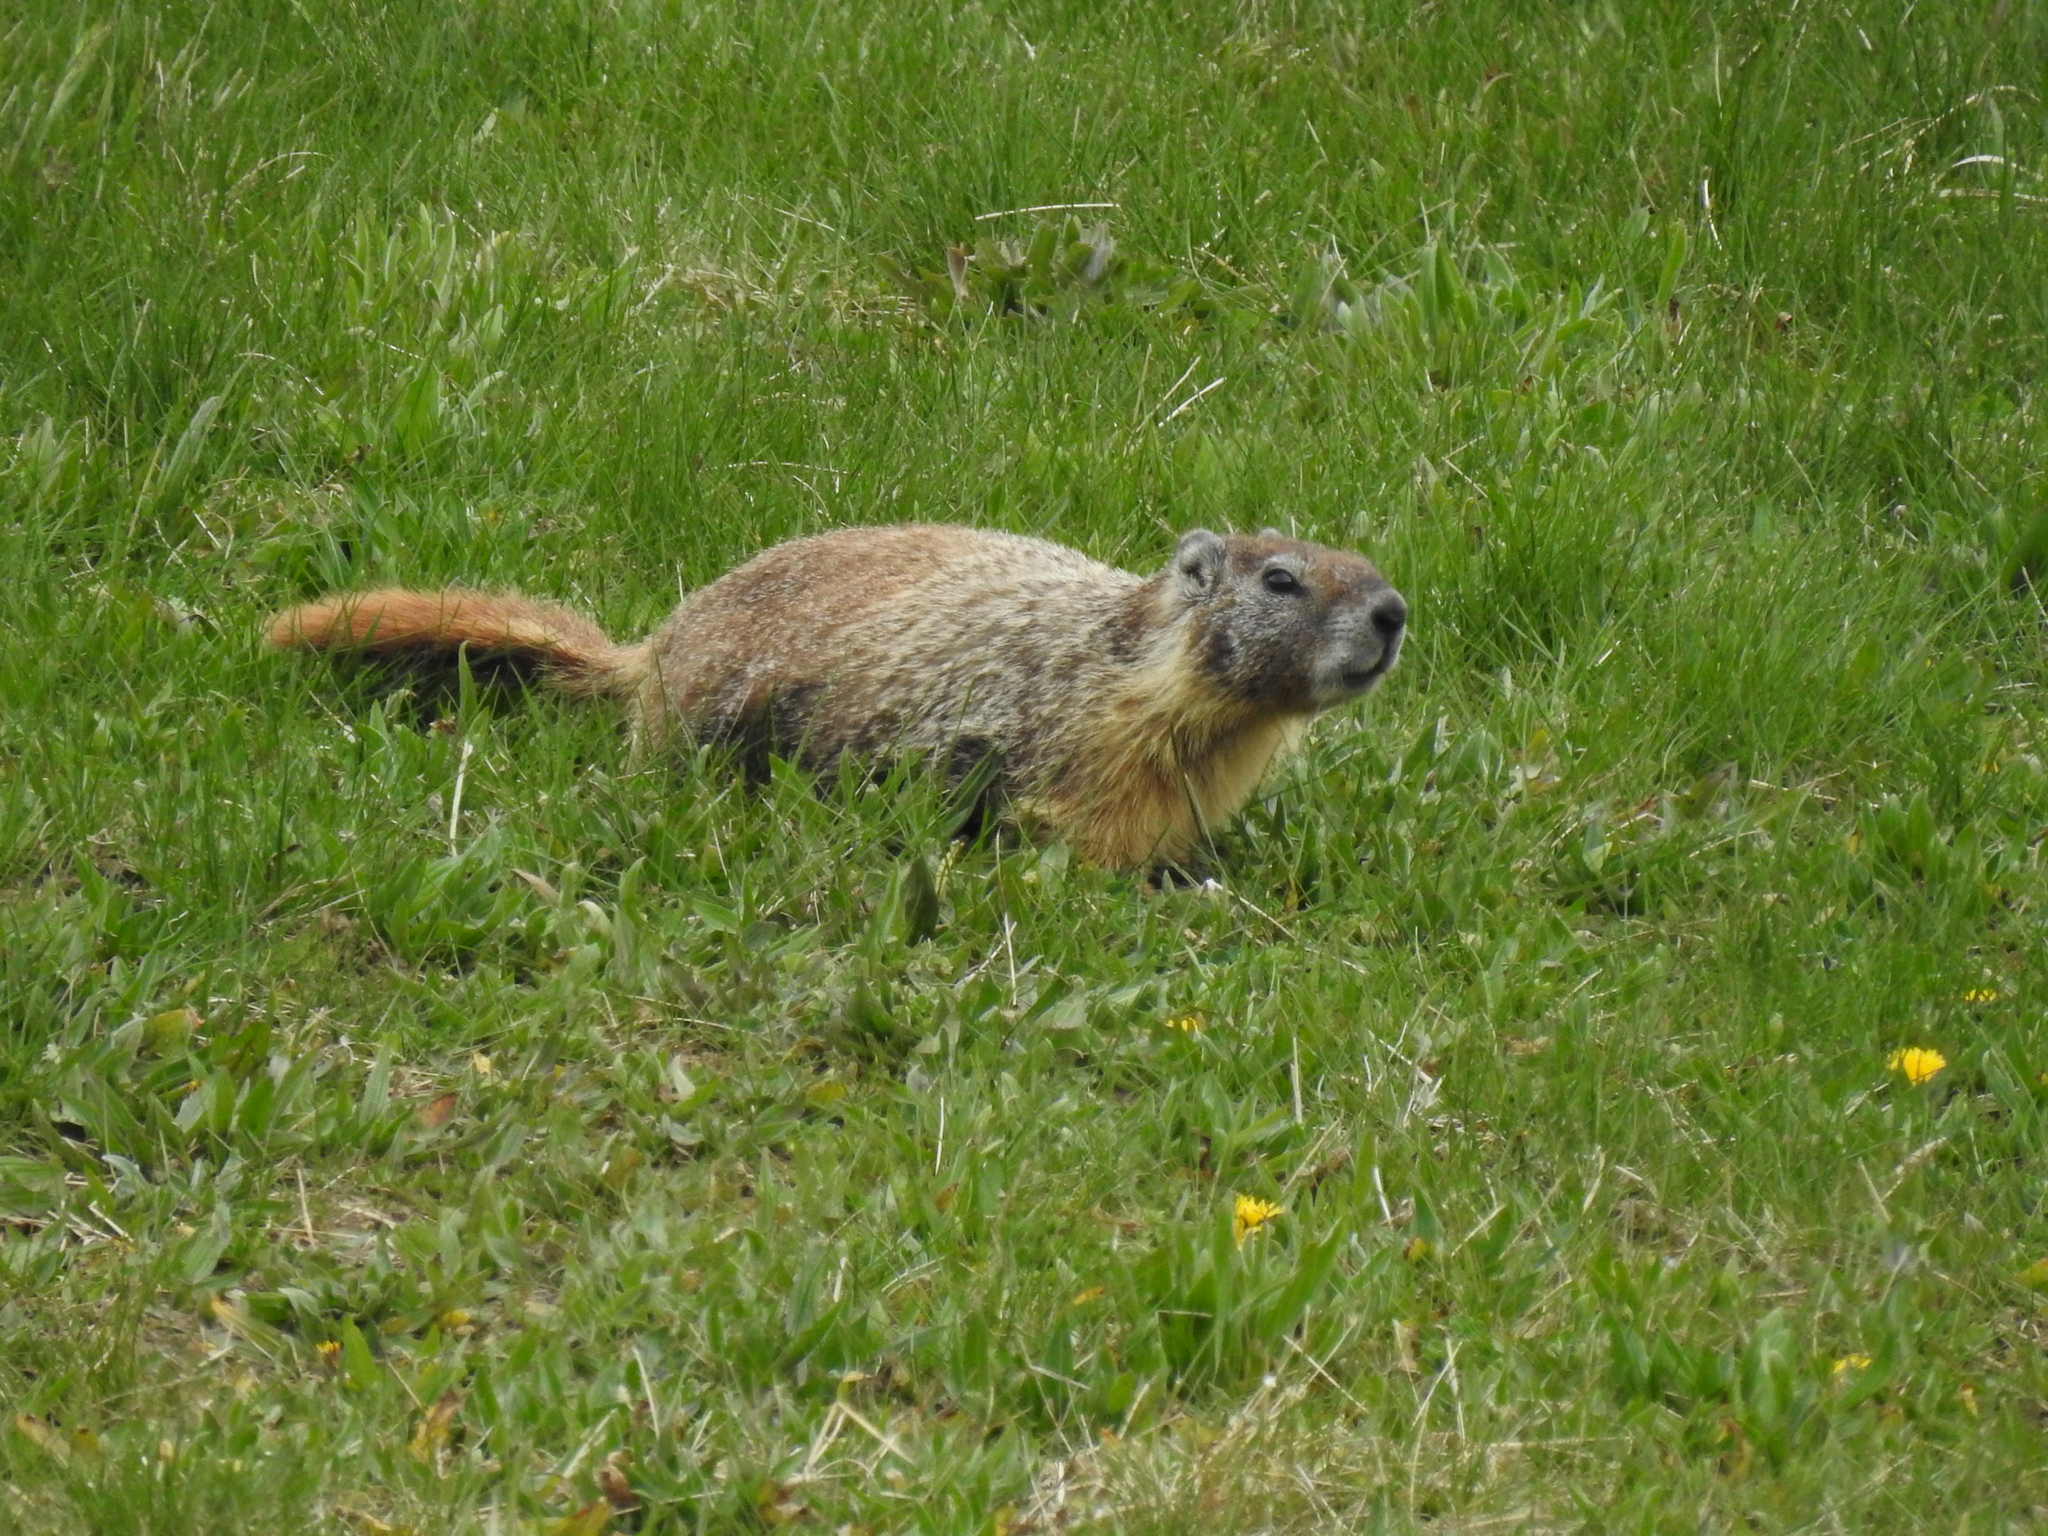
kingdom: Animalia
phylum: Chordata
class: Mammalia
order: Rodentia
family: Sciuridae
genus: Marmota
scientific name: Marmota flaviventris
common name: Yellow-bellied marmot
